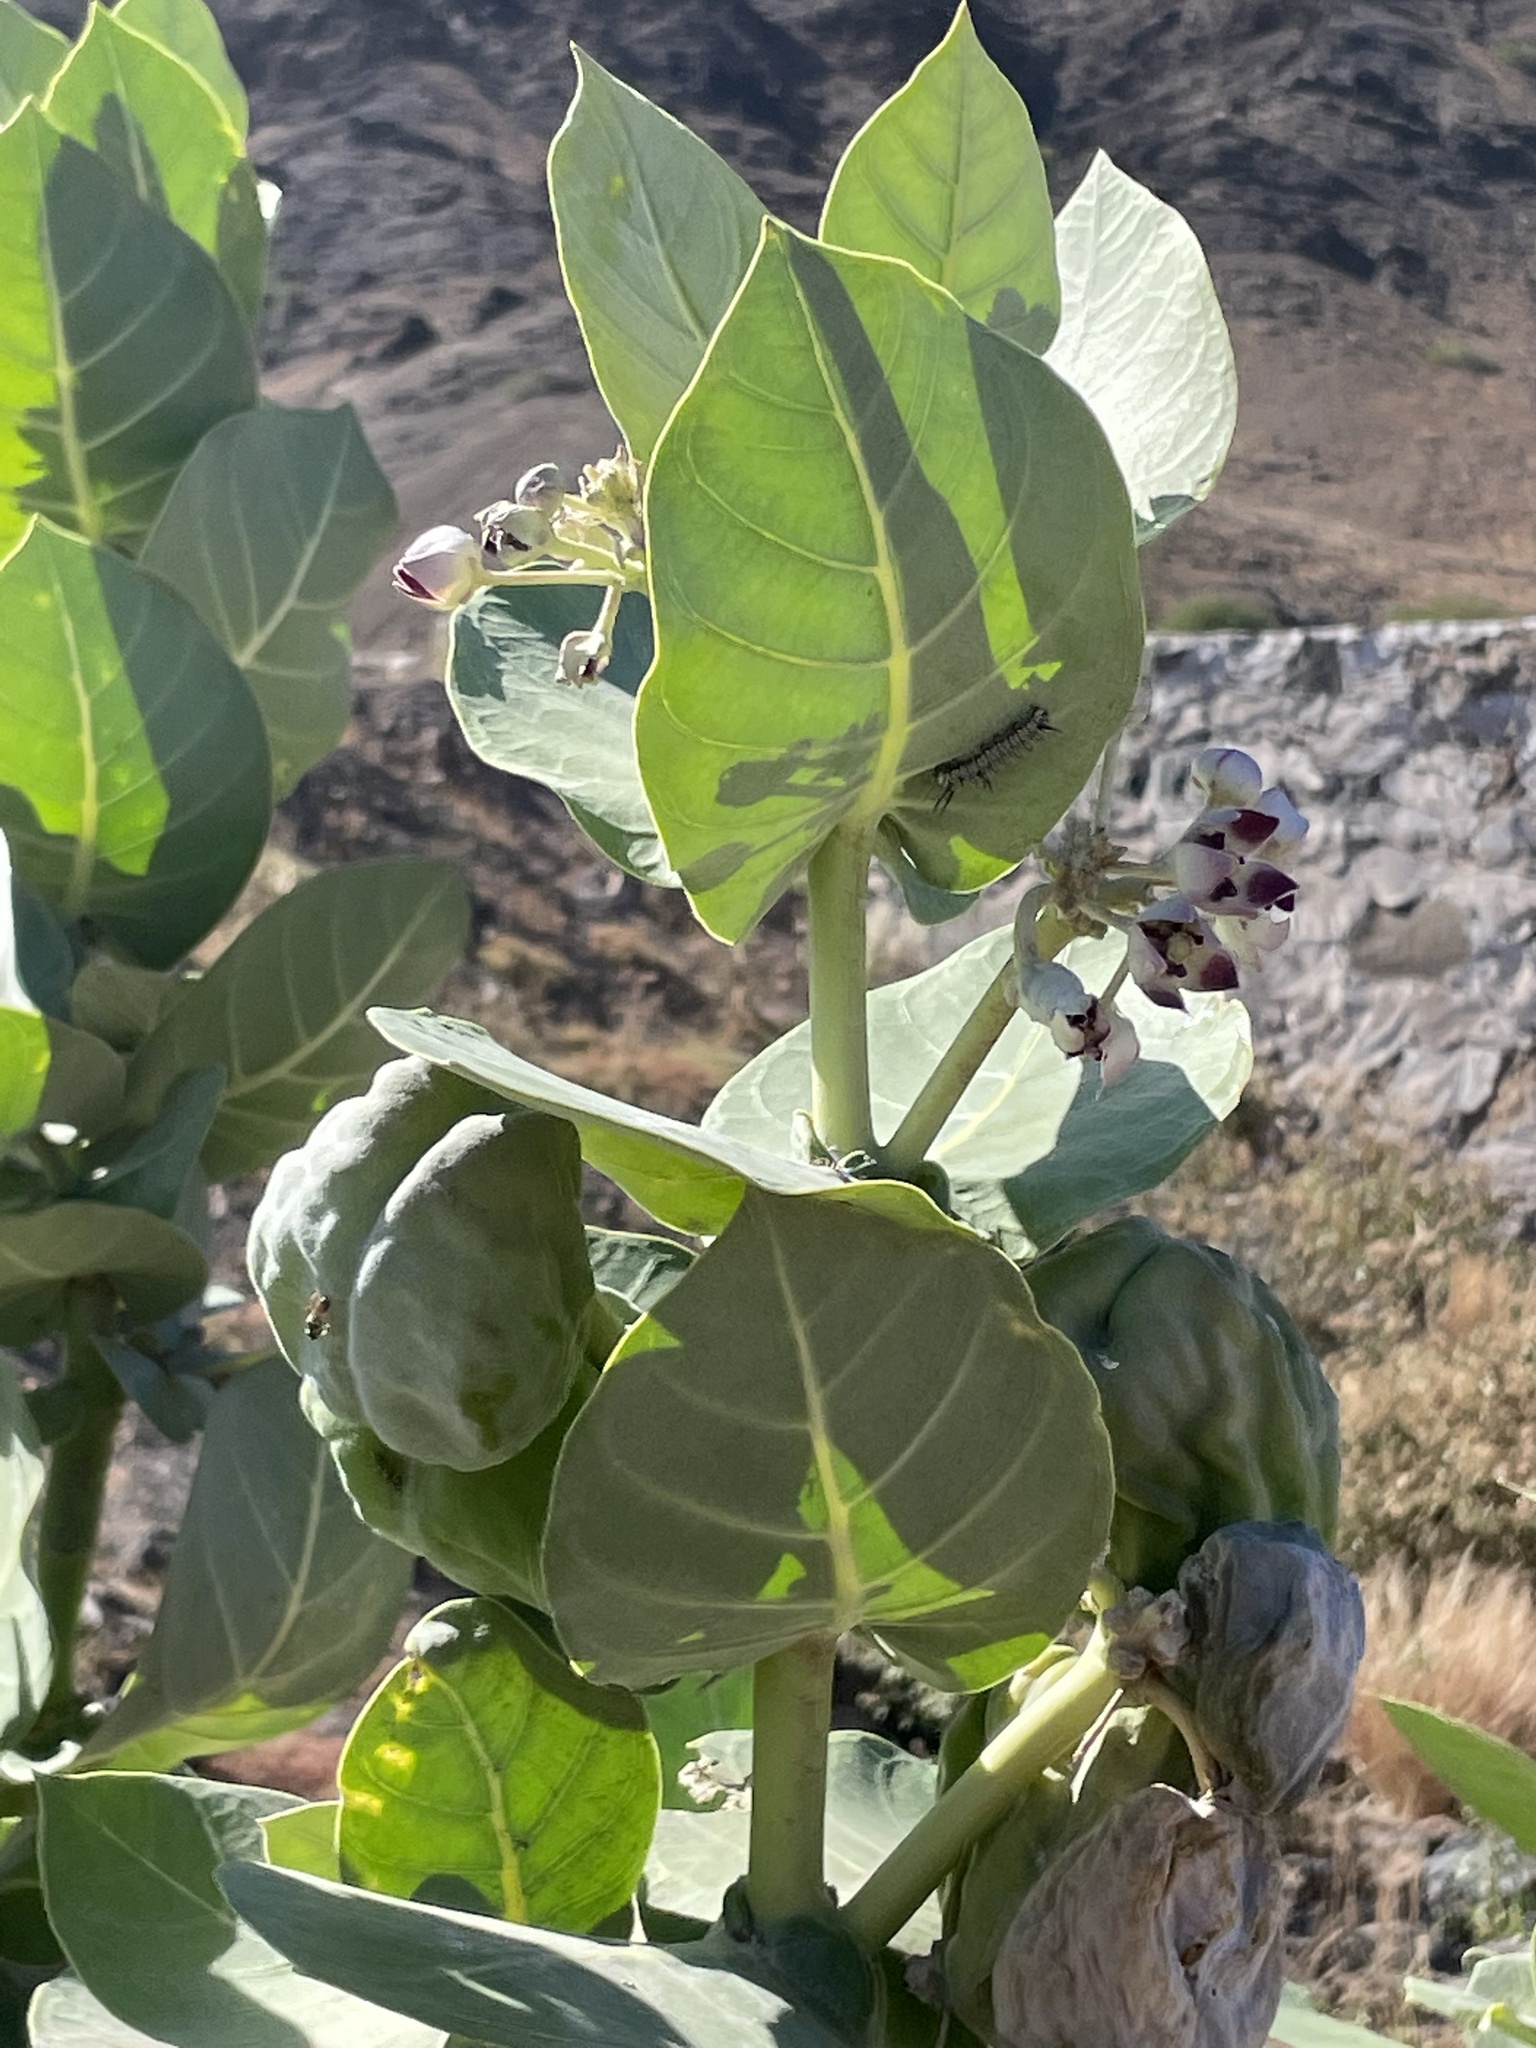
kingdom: Plantae
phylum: Tracheophyta
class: Magnoliopsida
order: Gentianales
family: Apocynaceae
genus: Calotropis
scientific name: Calotropis procera
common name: Roostertree
